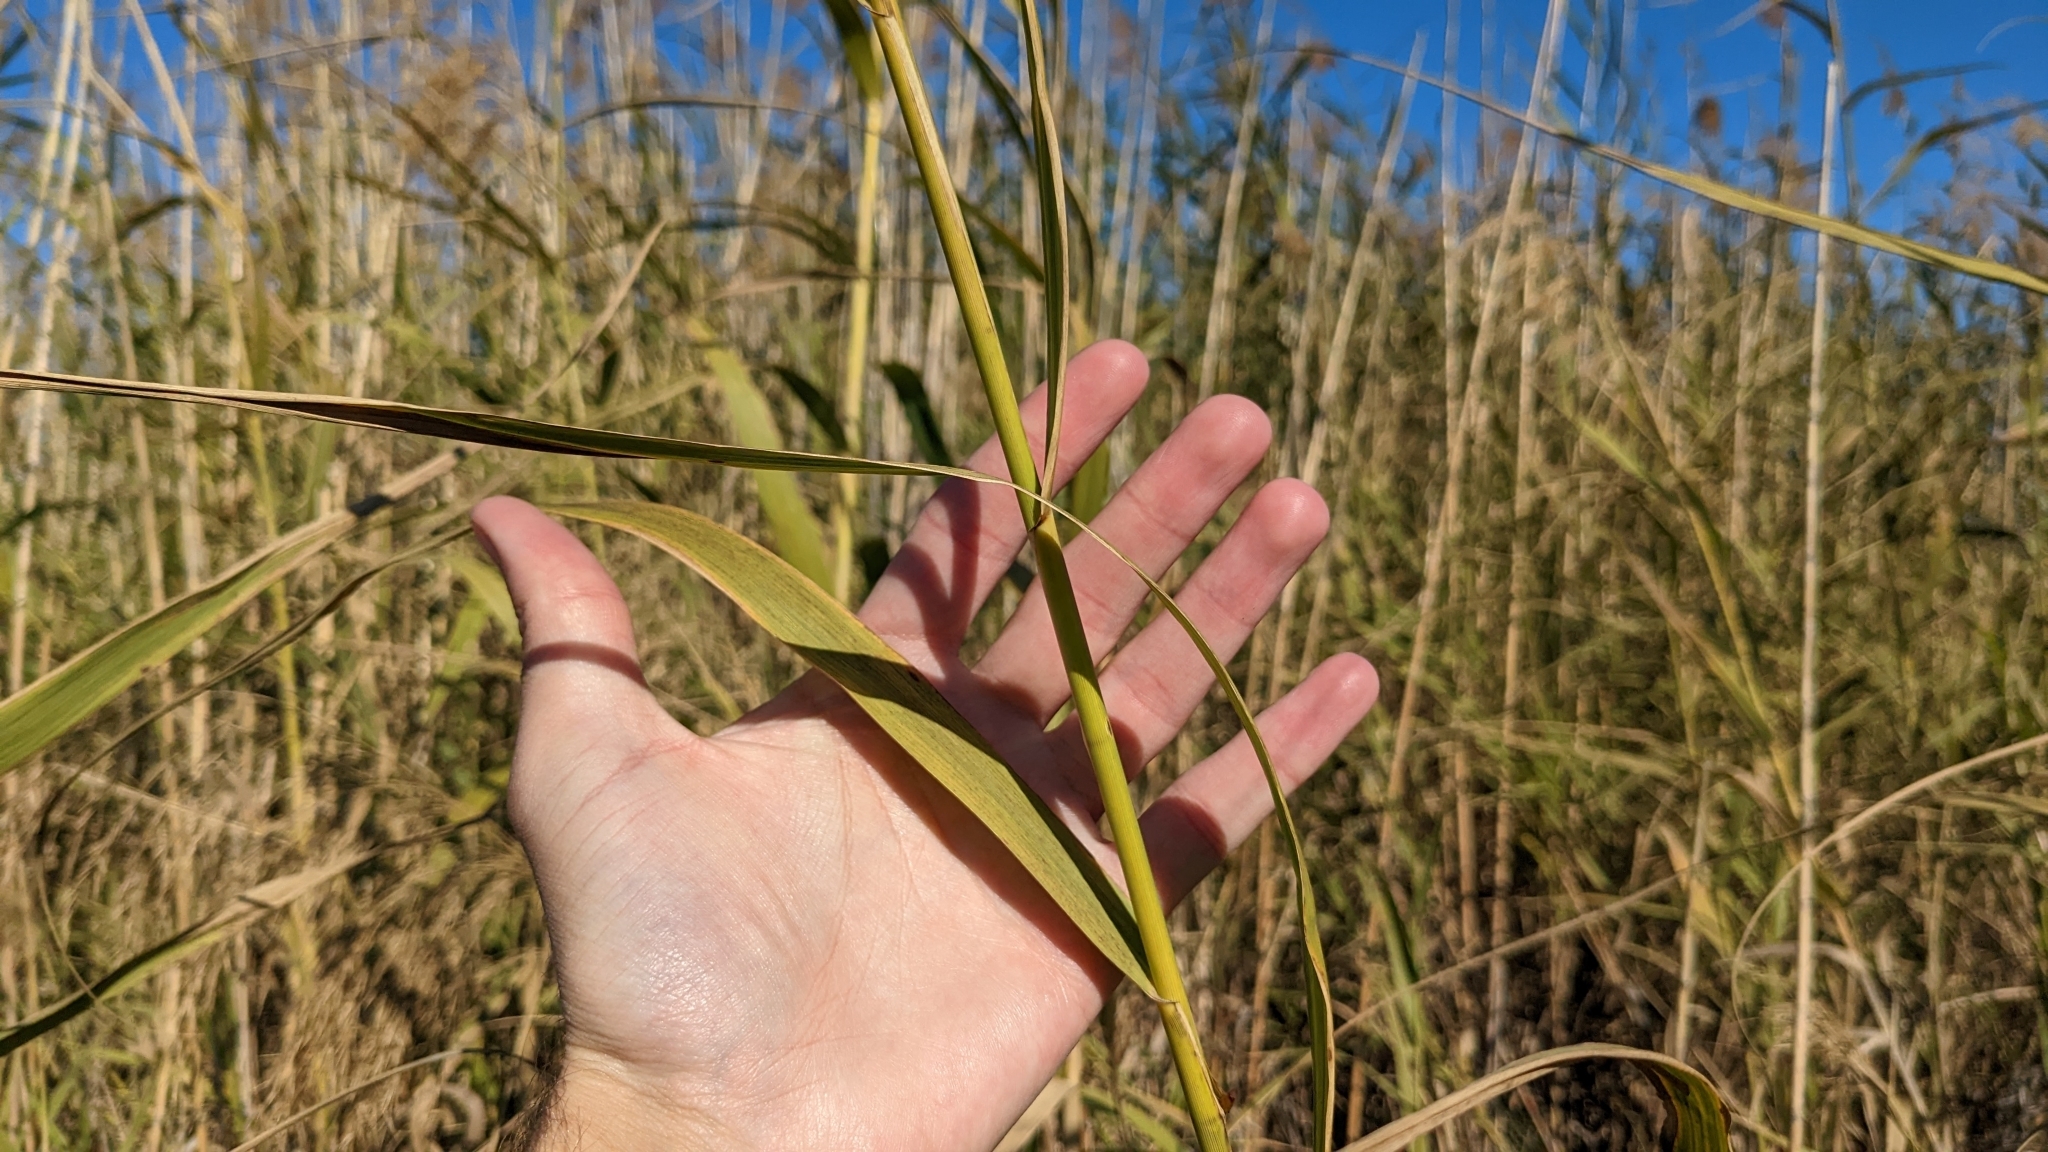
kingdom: Plantae
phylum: Tracheophyta
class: Liliopsida
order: Poales
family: Poaceae
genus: Phragmites
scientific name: Phragmites australis
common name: Common reed
